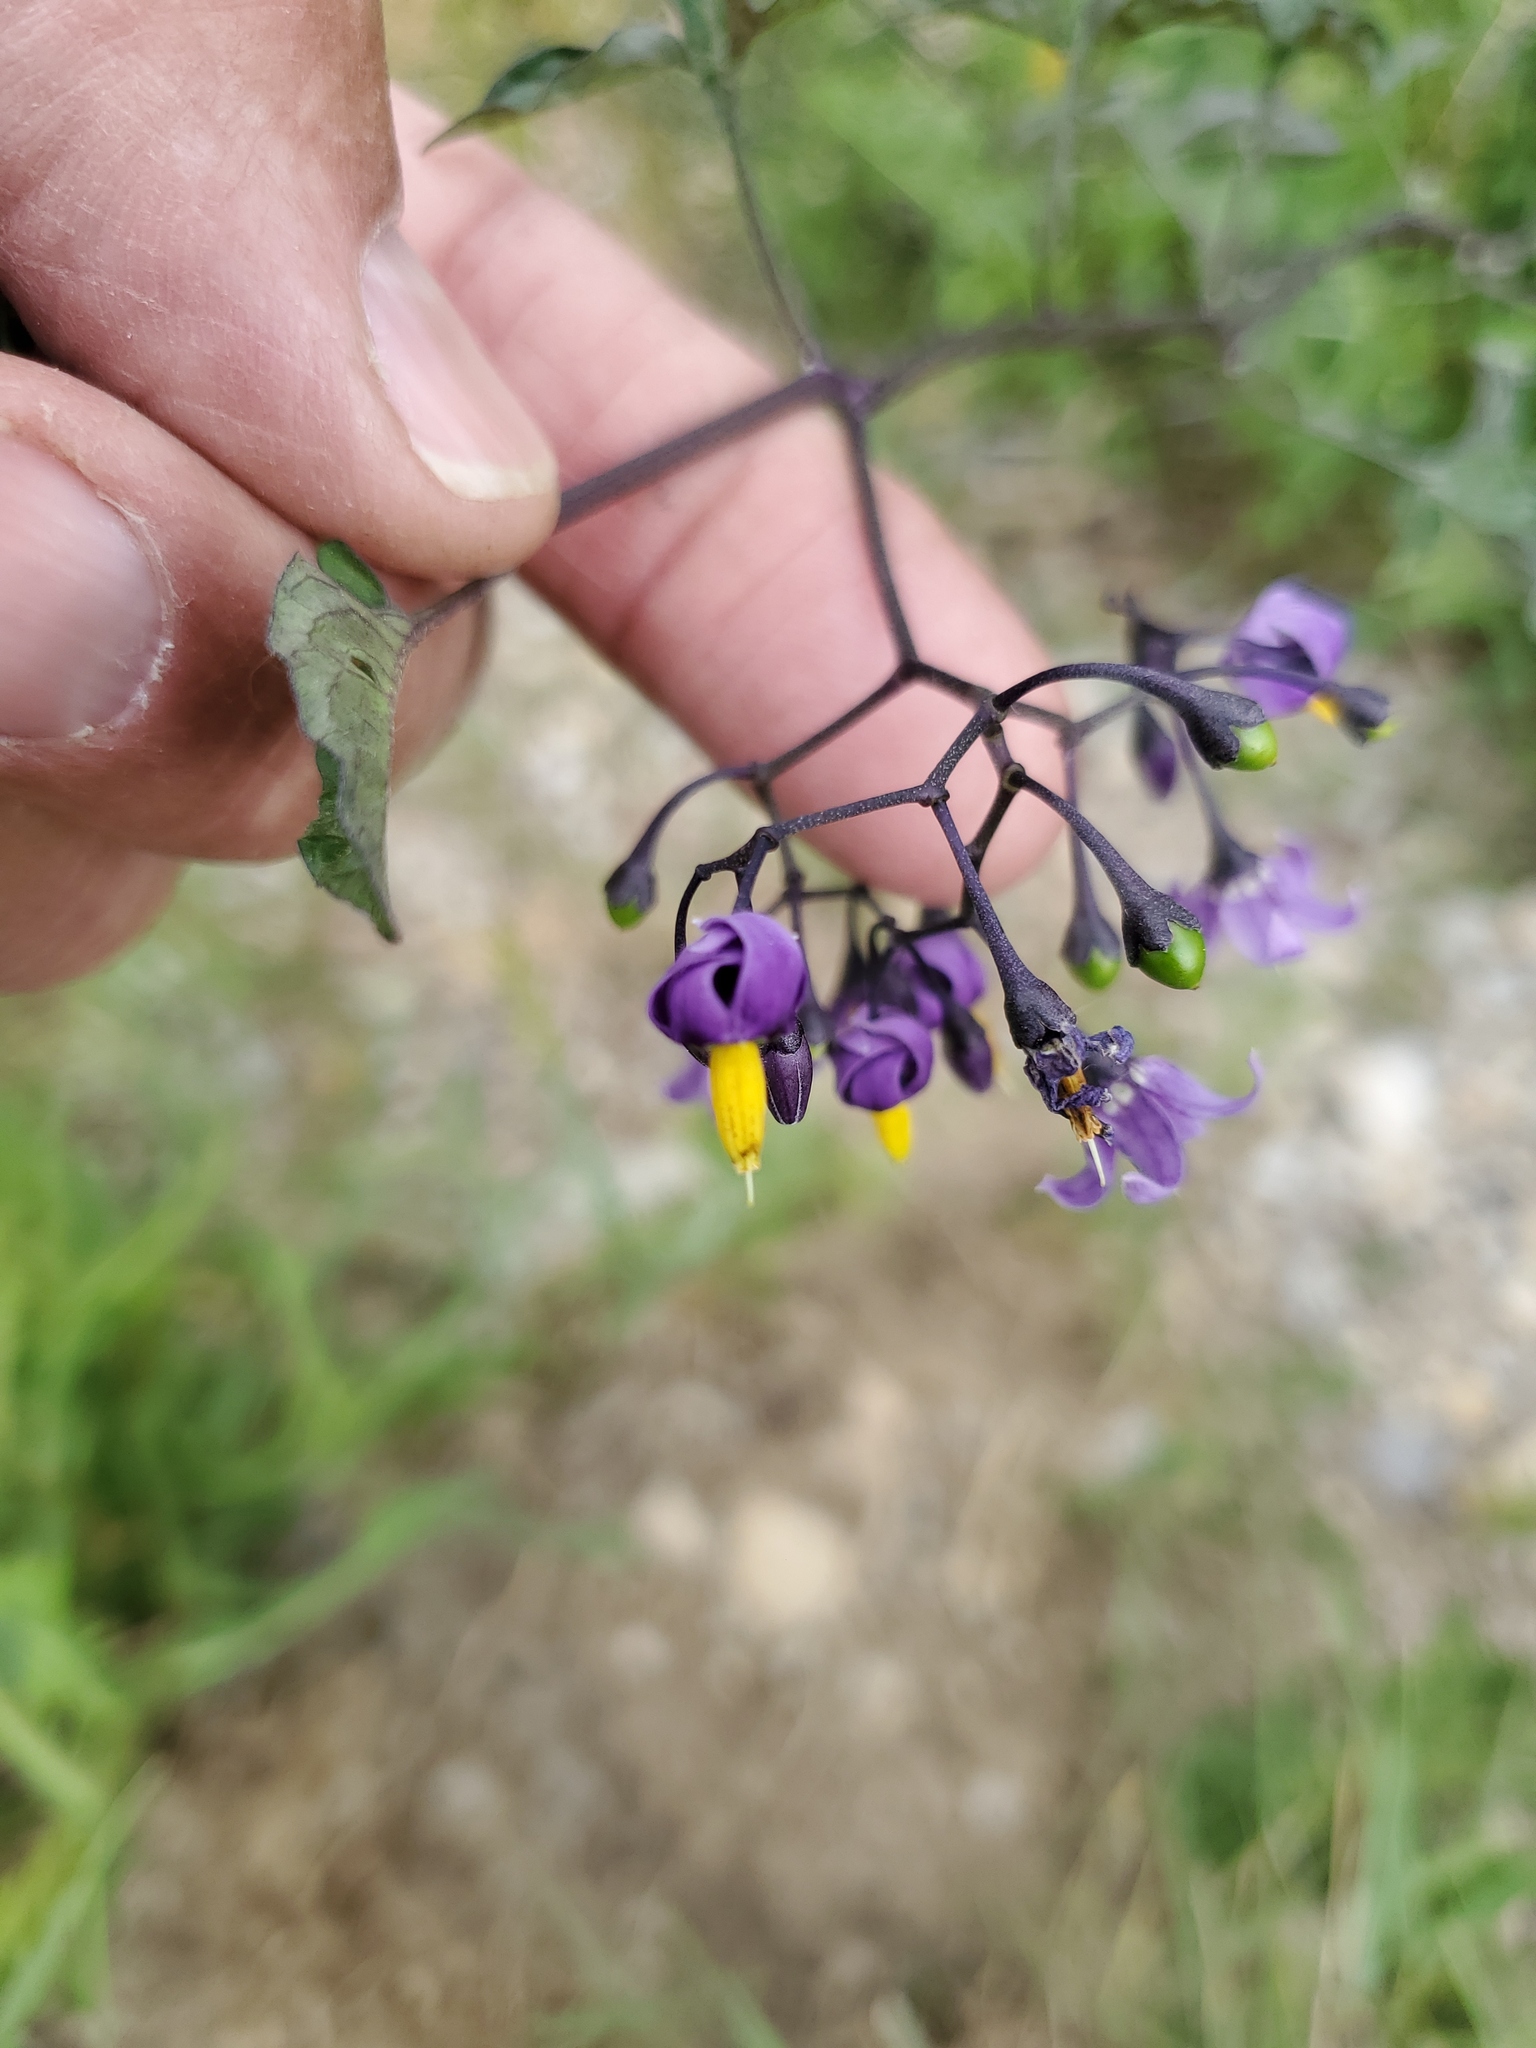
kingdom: Plantae
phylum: Tracheophyta
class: Magnoliopsida
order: Solanales
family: Solanaceae
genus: Solanum
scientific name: Solanum dulcamara
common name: Climbing nightshade
